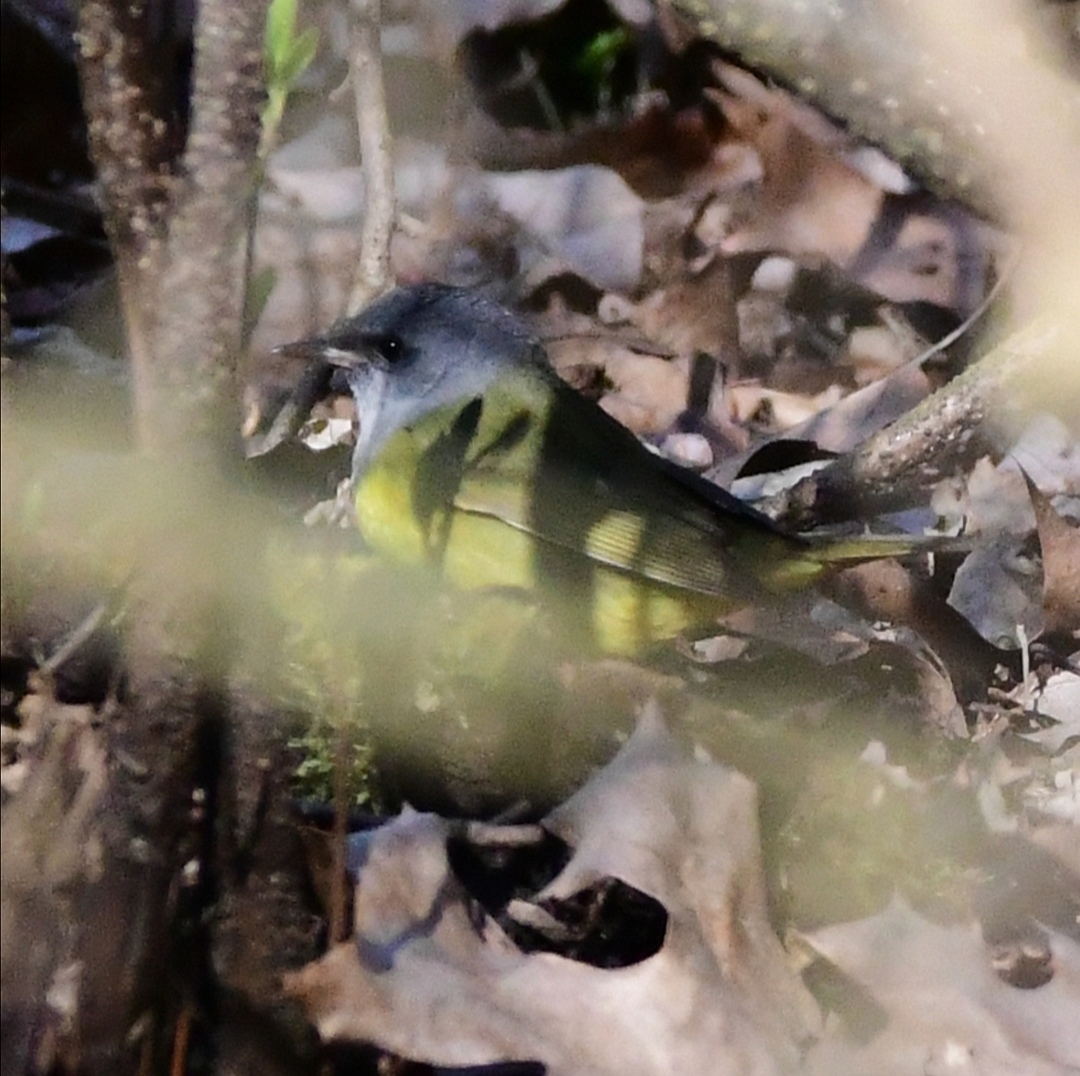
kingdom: Animalia
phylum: Chordata
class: Aves
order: Passeriformes
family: Parulidae
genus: Geothlypis
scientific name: Geothlypis philadelphia
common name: Mourning warbler
